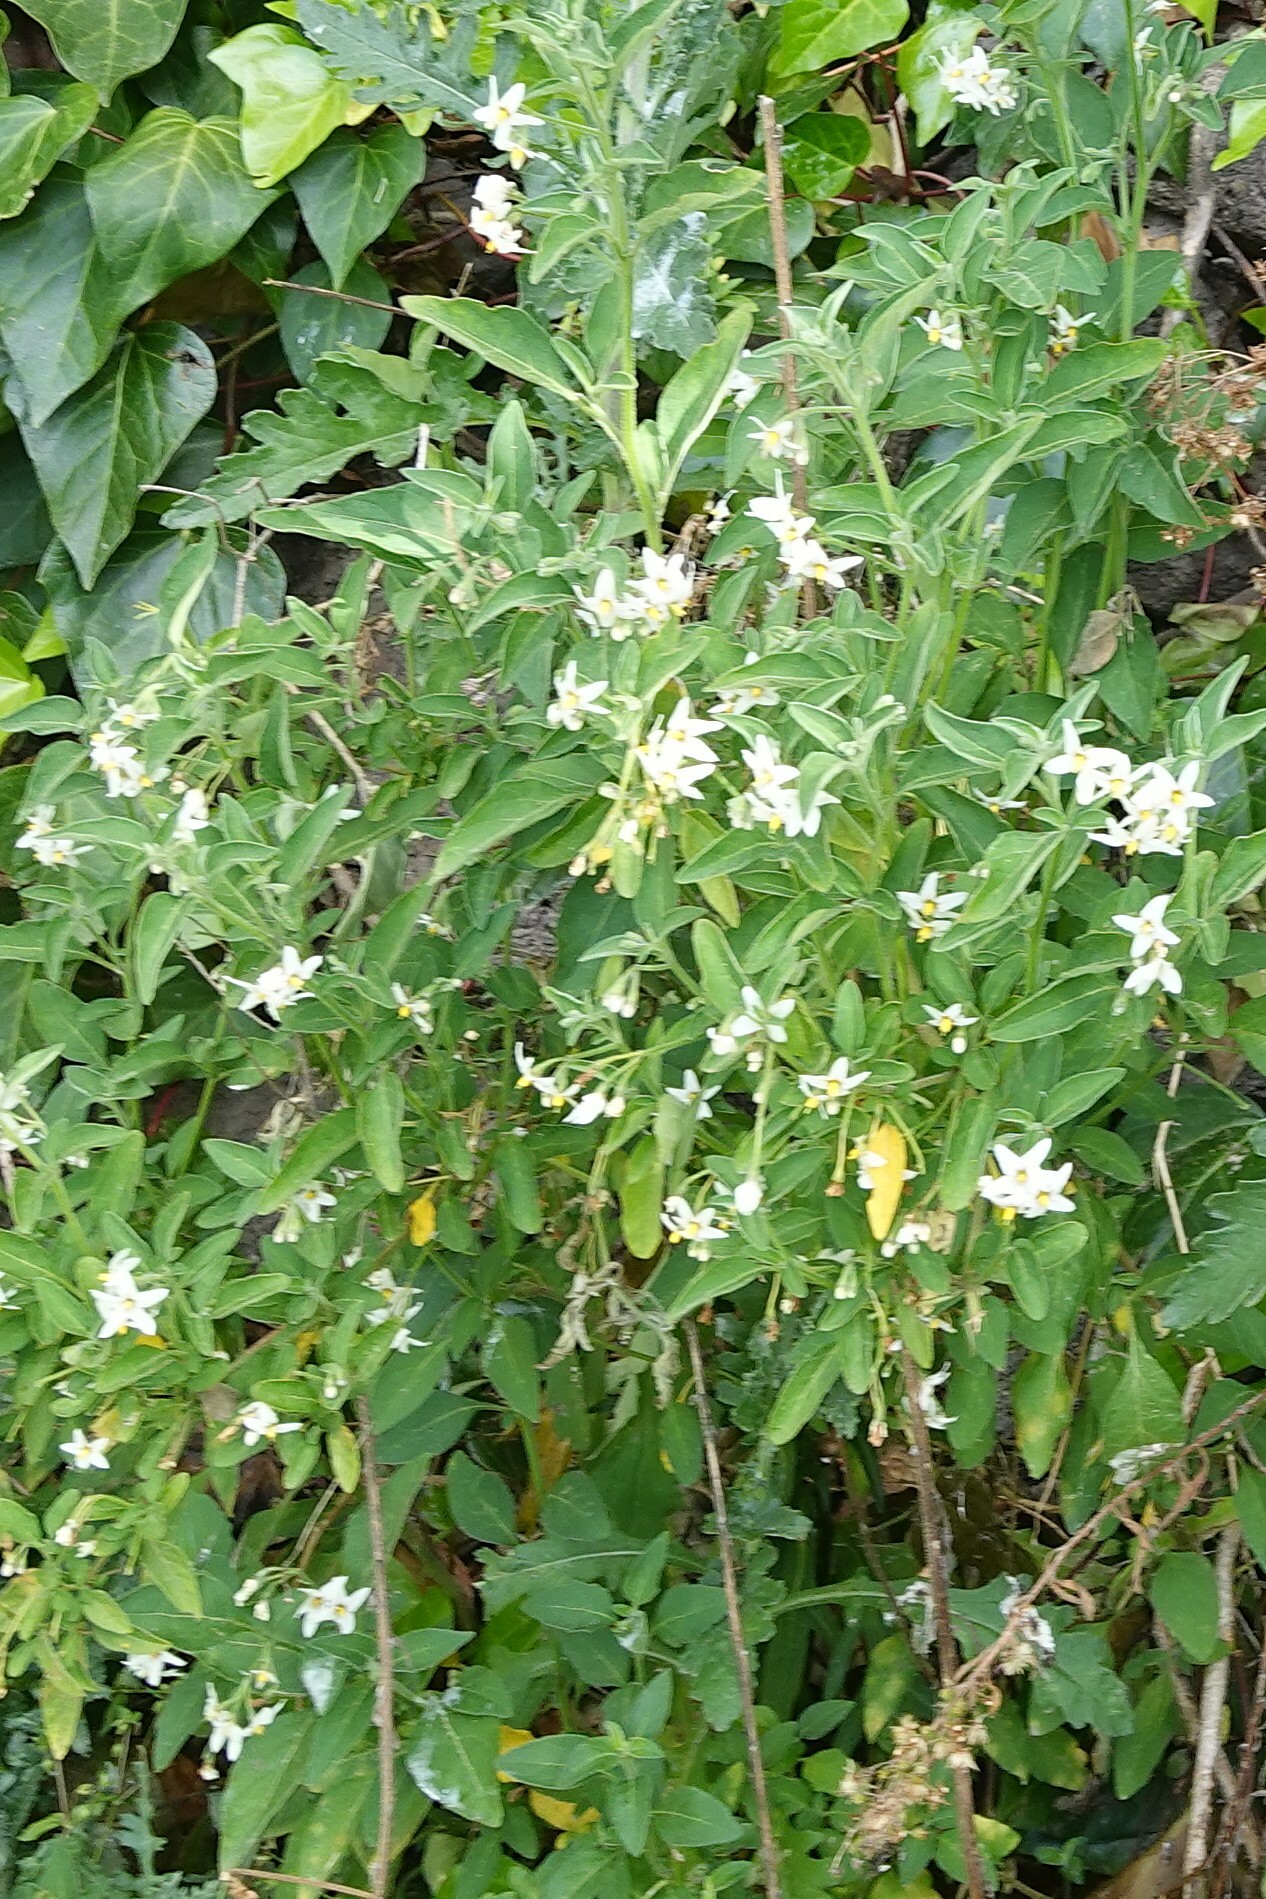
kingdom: Plantae
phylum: Tracheophyta
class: Magnoliopsida
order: Solanales
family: Solanaceae
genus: Solanum
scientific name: Solanum chenopodioides
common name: Tall nightshade
